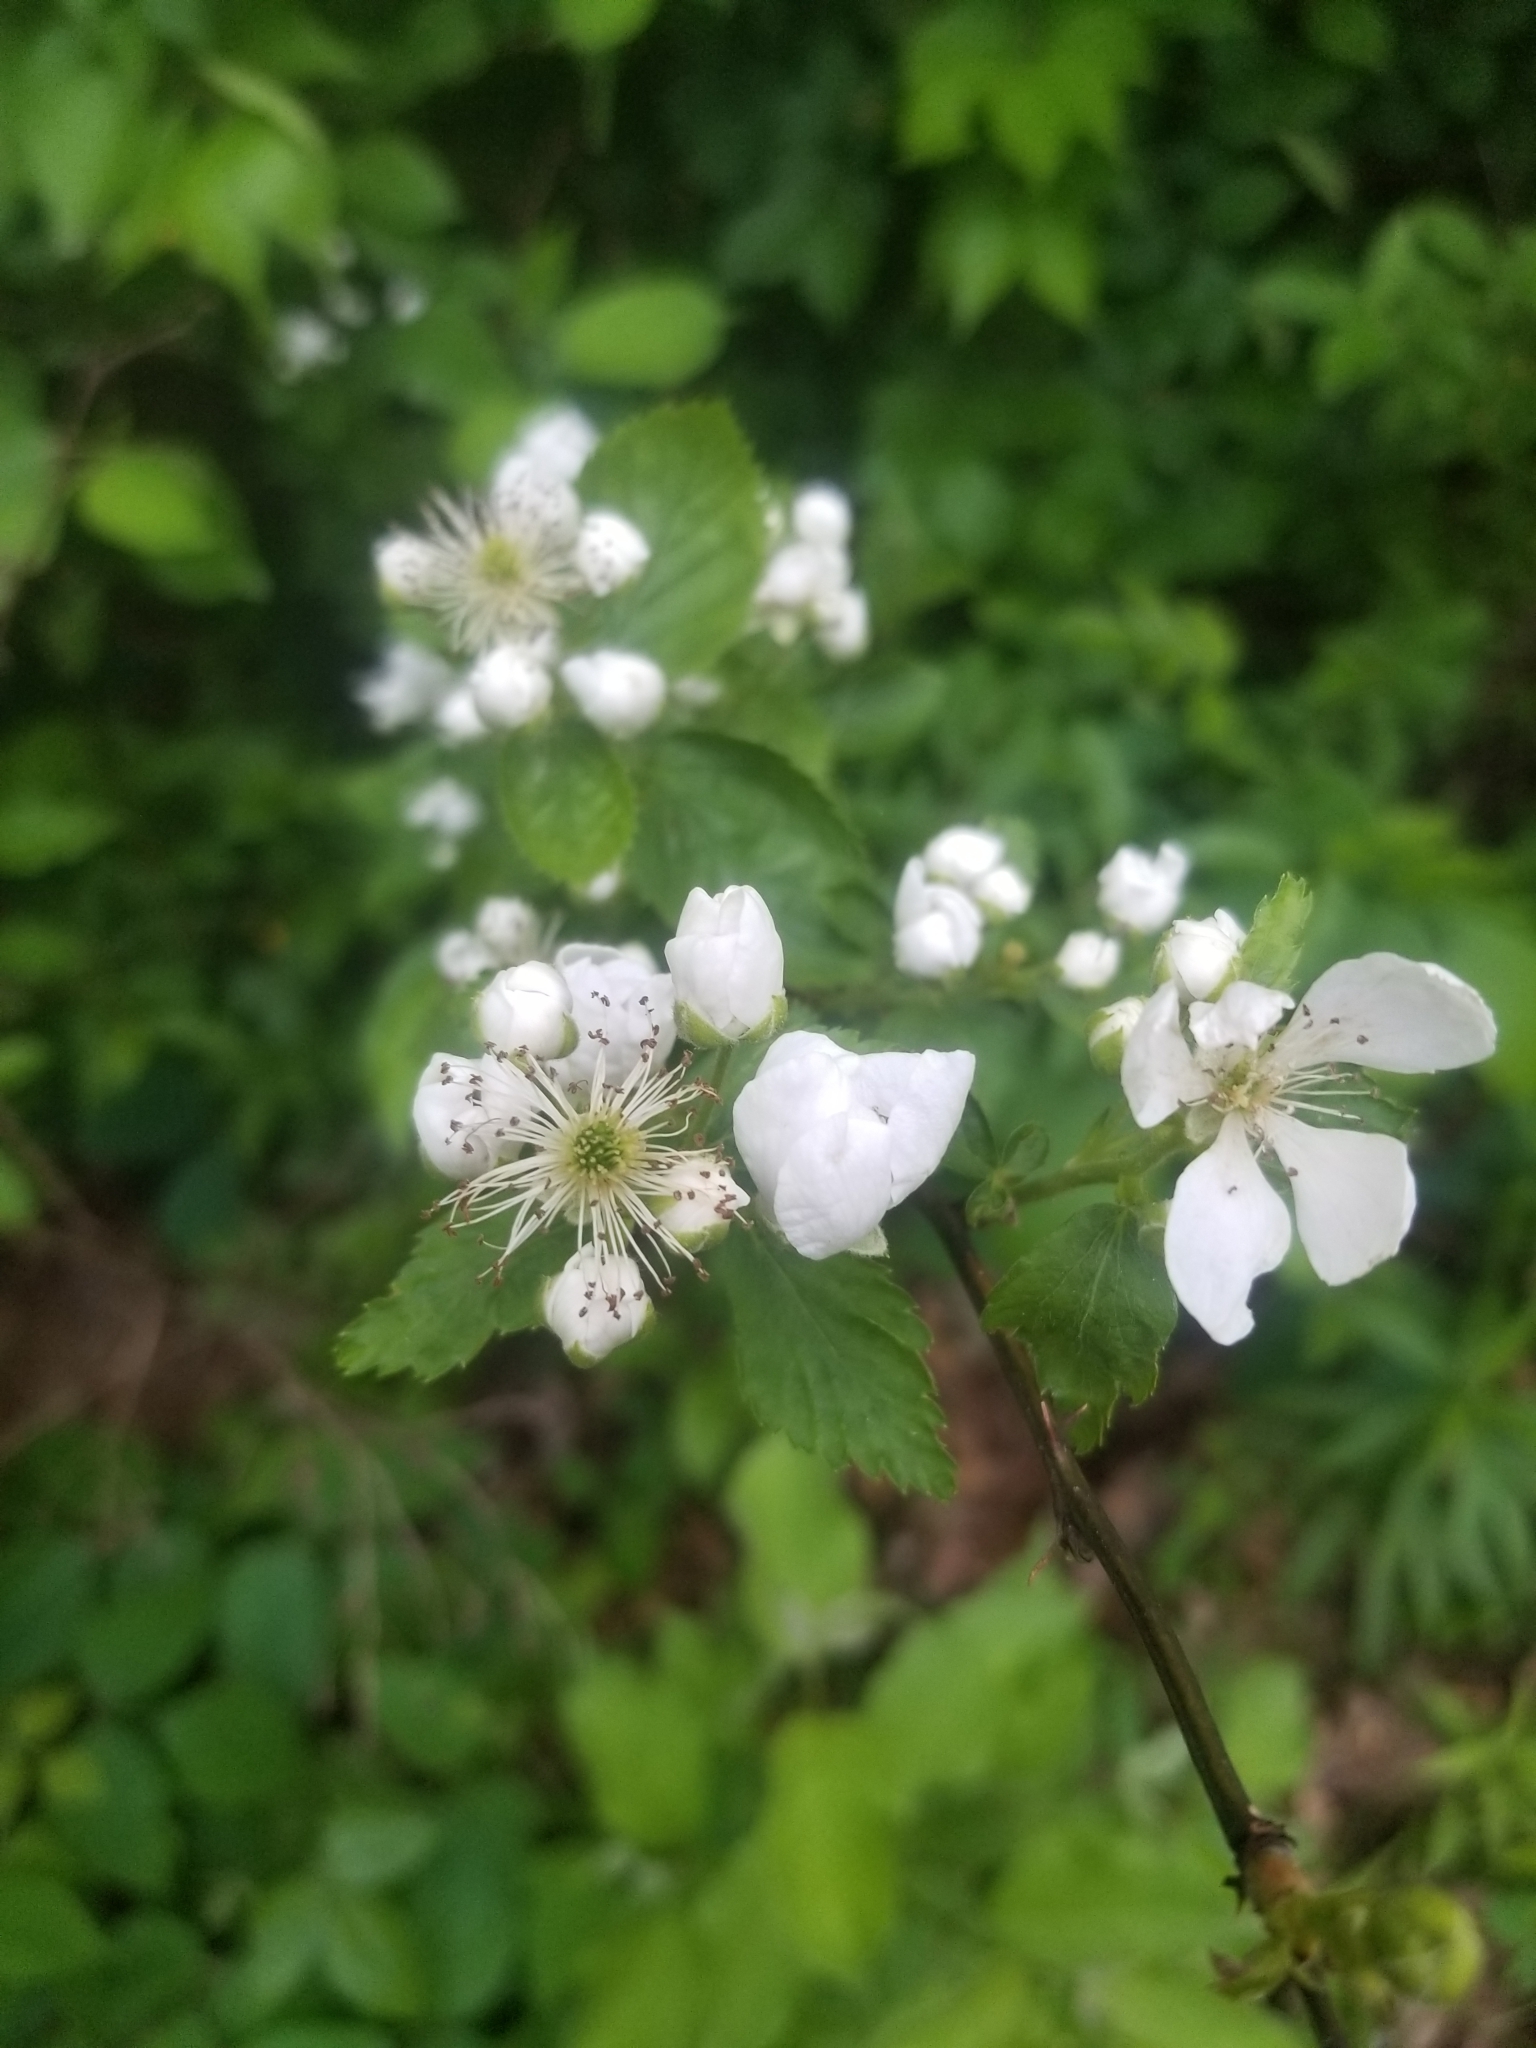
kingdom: Plantae
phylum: Tracheophyta
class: Magnoliopsida
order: Rosales
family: Rosaceae
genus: Rubus
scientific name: Rubus allegheniensis
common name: Allegheny blackberry
